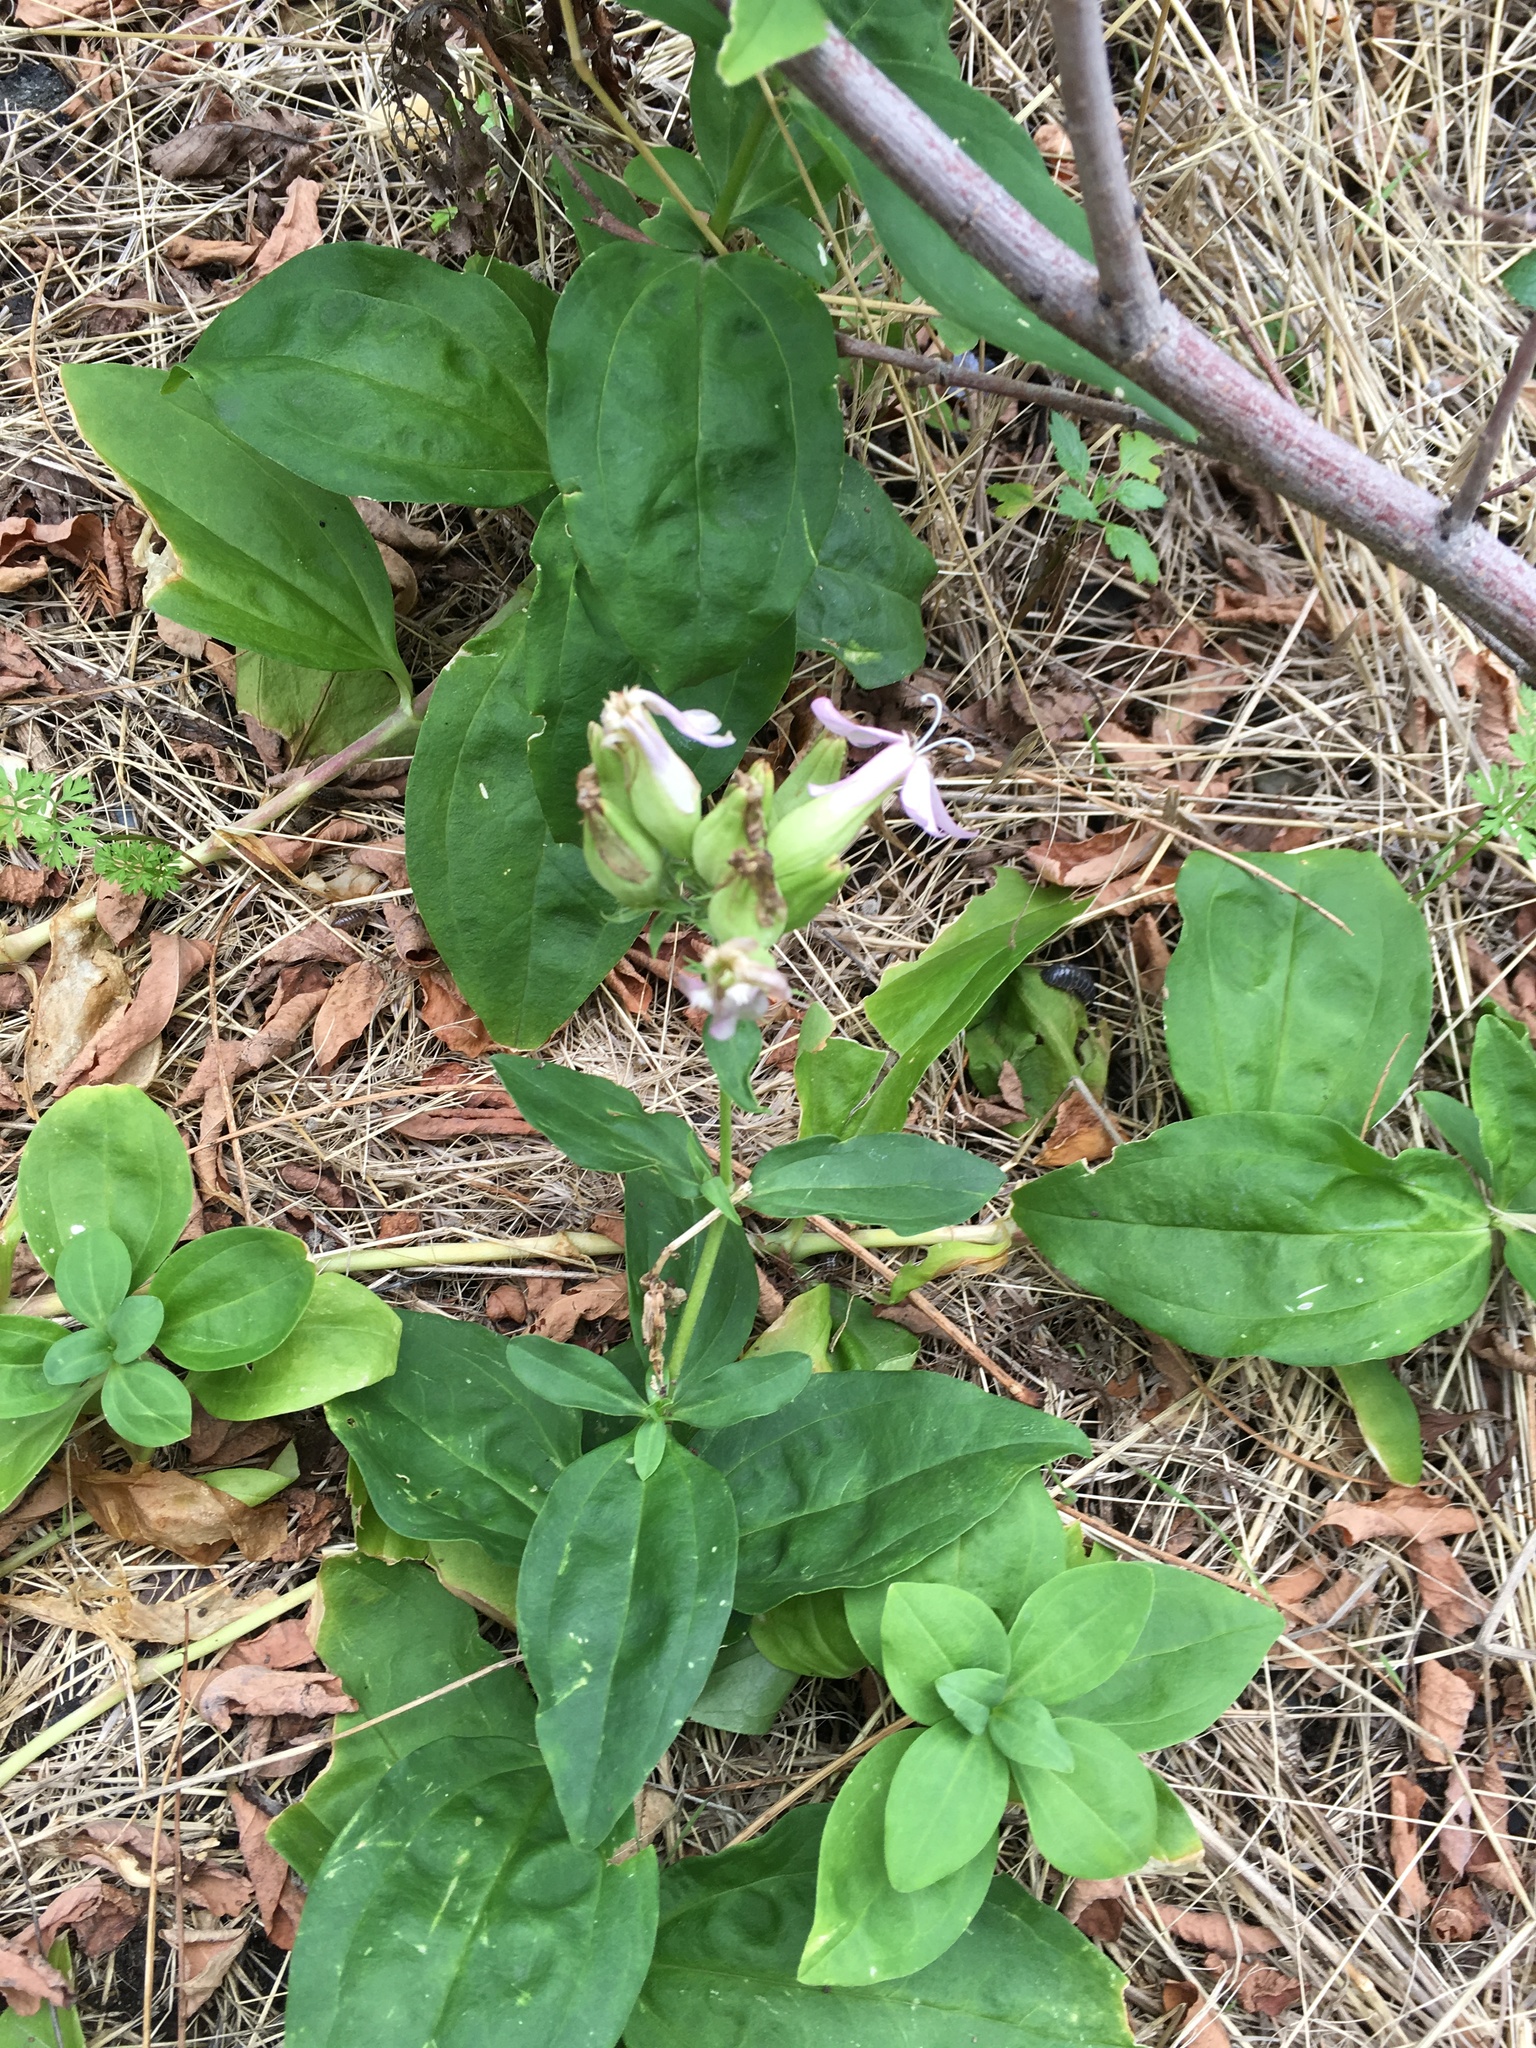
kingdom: Plantae
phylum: Tracheophyta
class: Magnoliopsida
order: Caryophyllales
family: Caryophyllaceae
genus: Saponaria
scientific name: Saponaria officinalis
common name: Soapwort
